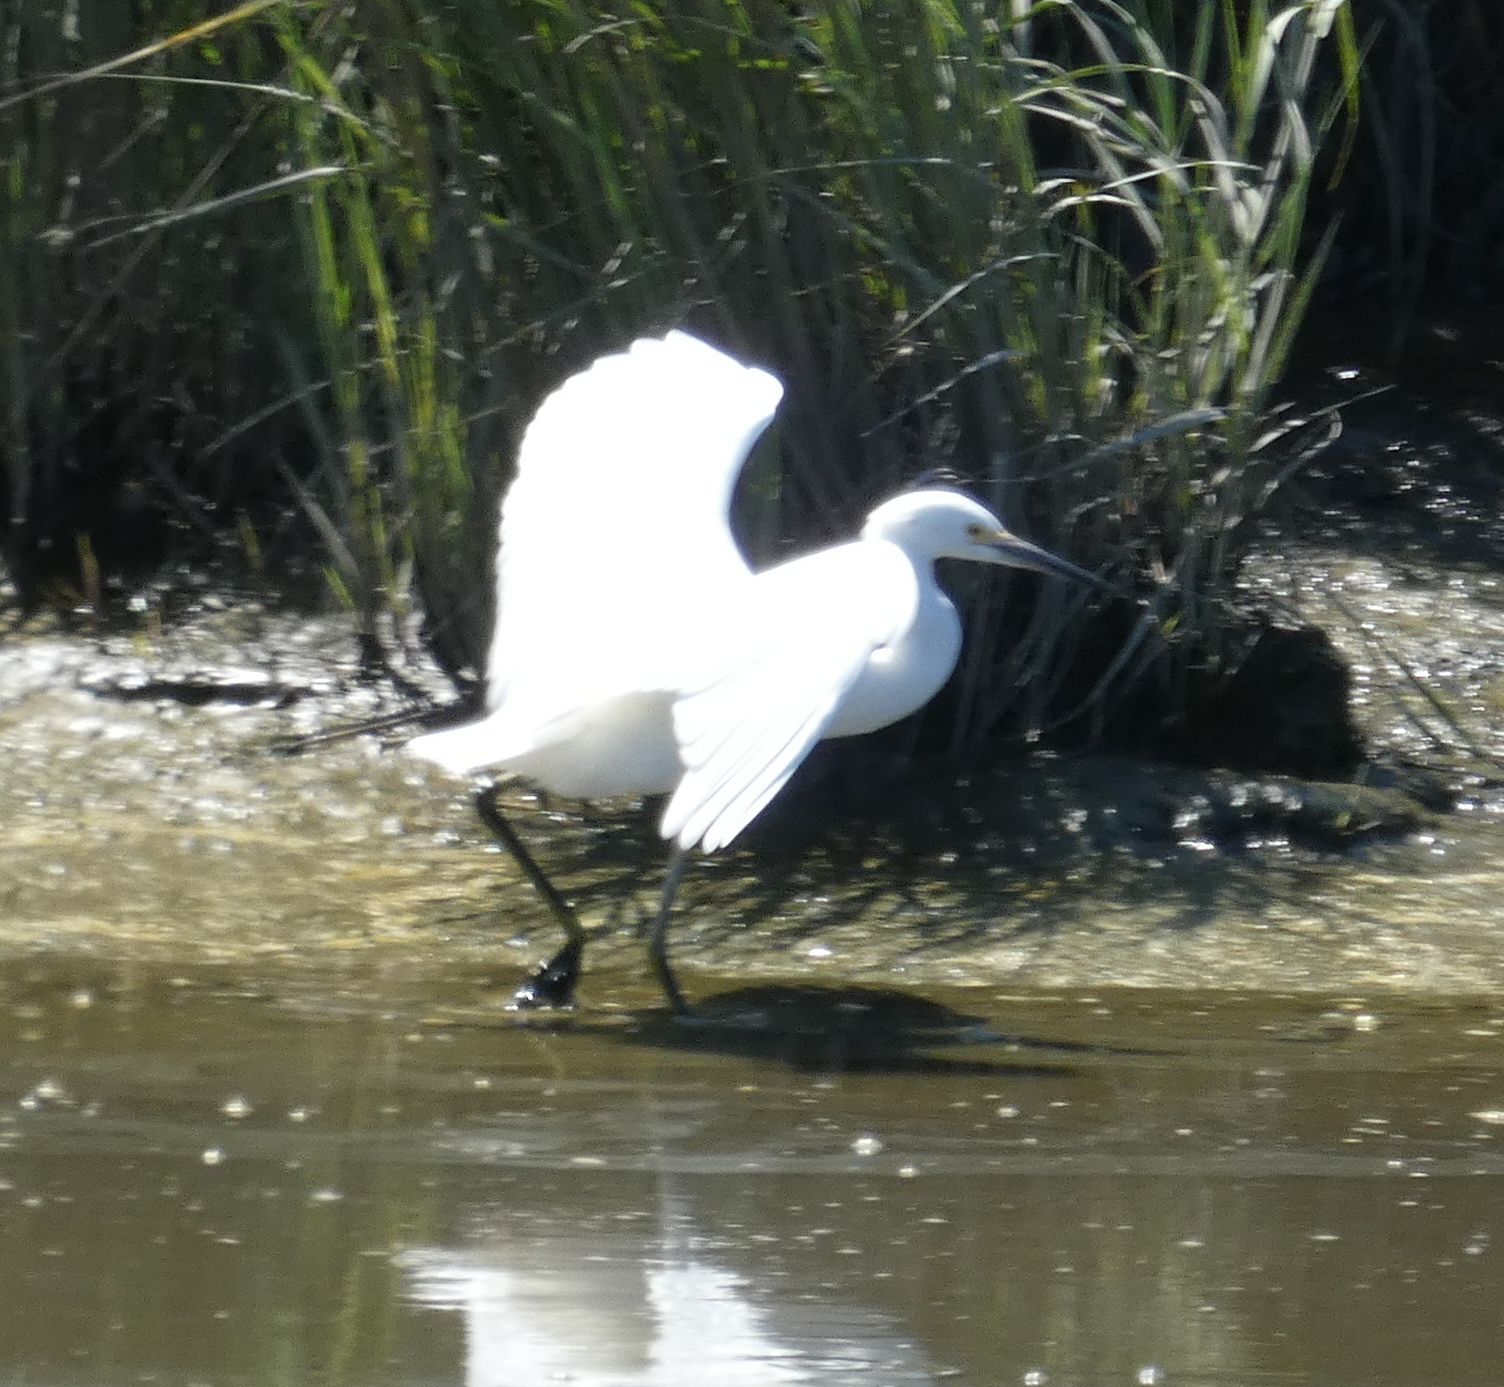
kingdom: Animalia
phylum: Chordata
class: Aves
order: Pelecaniformes
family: Ardeidae
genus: Egretta
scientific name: Egretta thula
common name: Snowy egret
